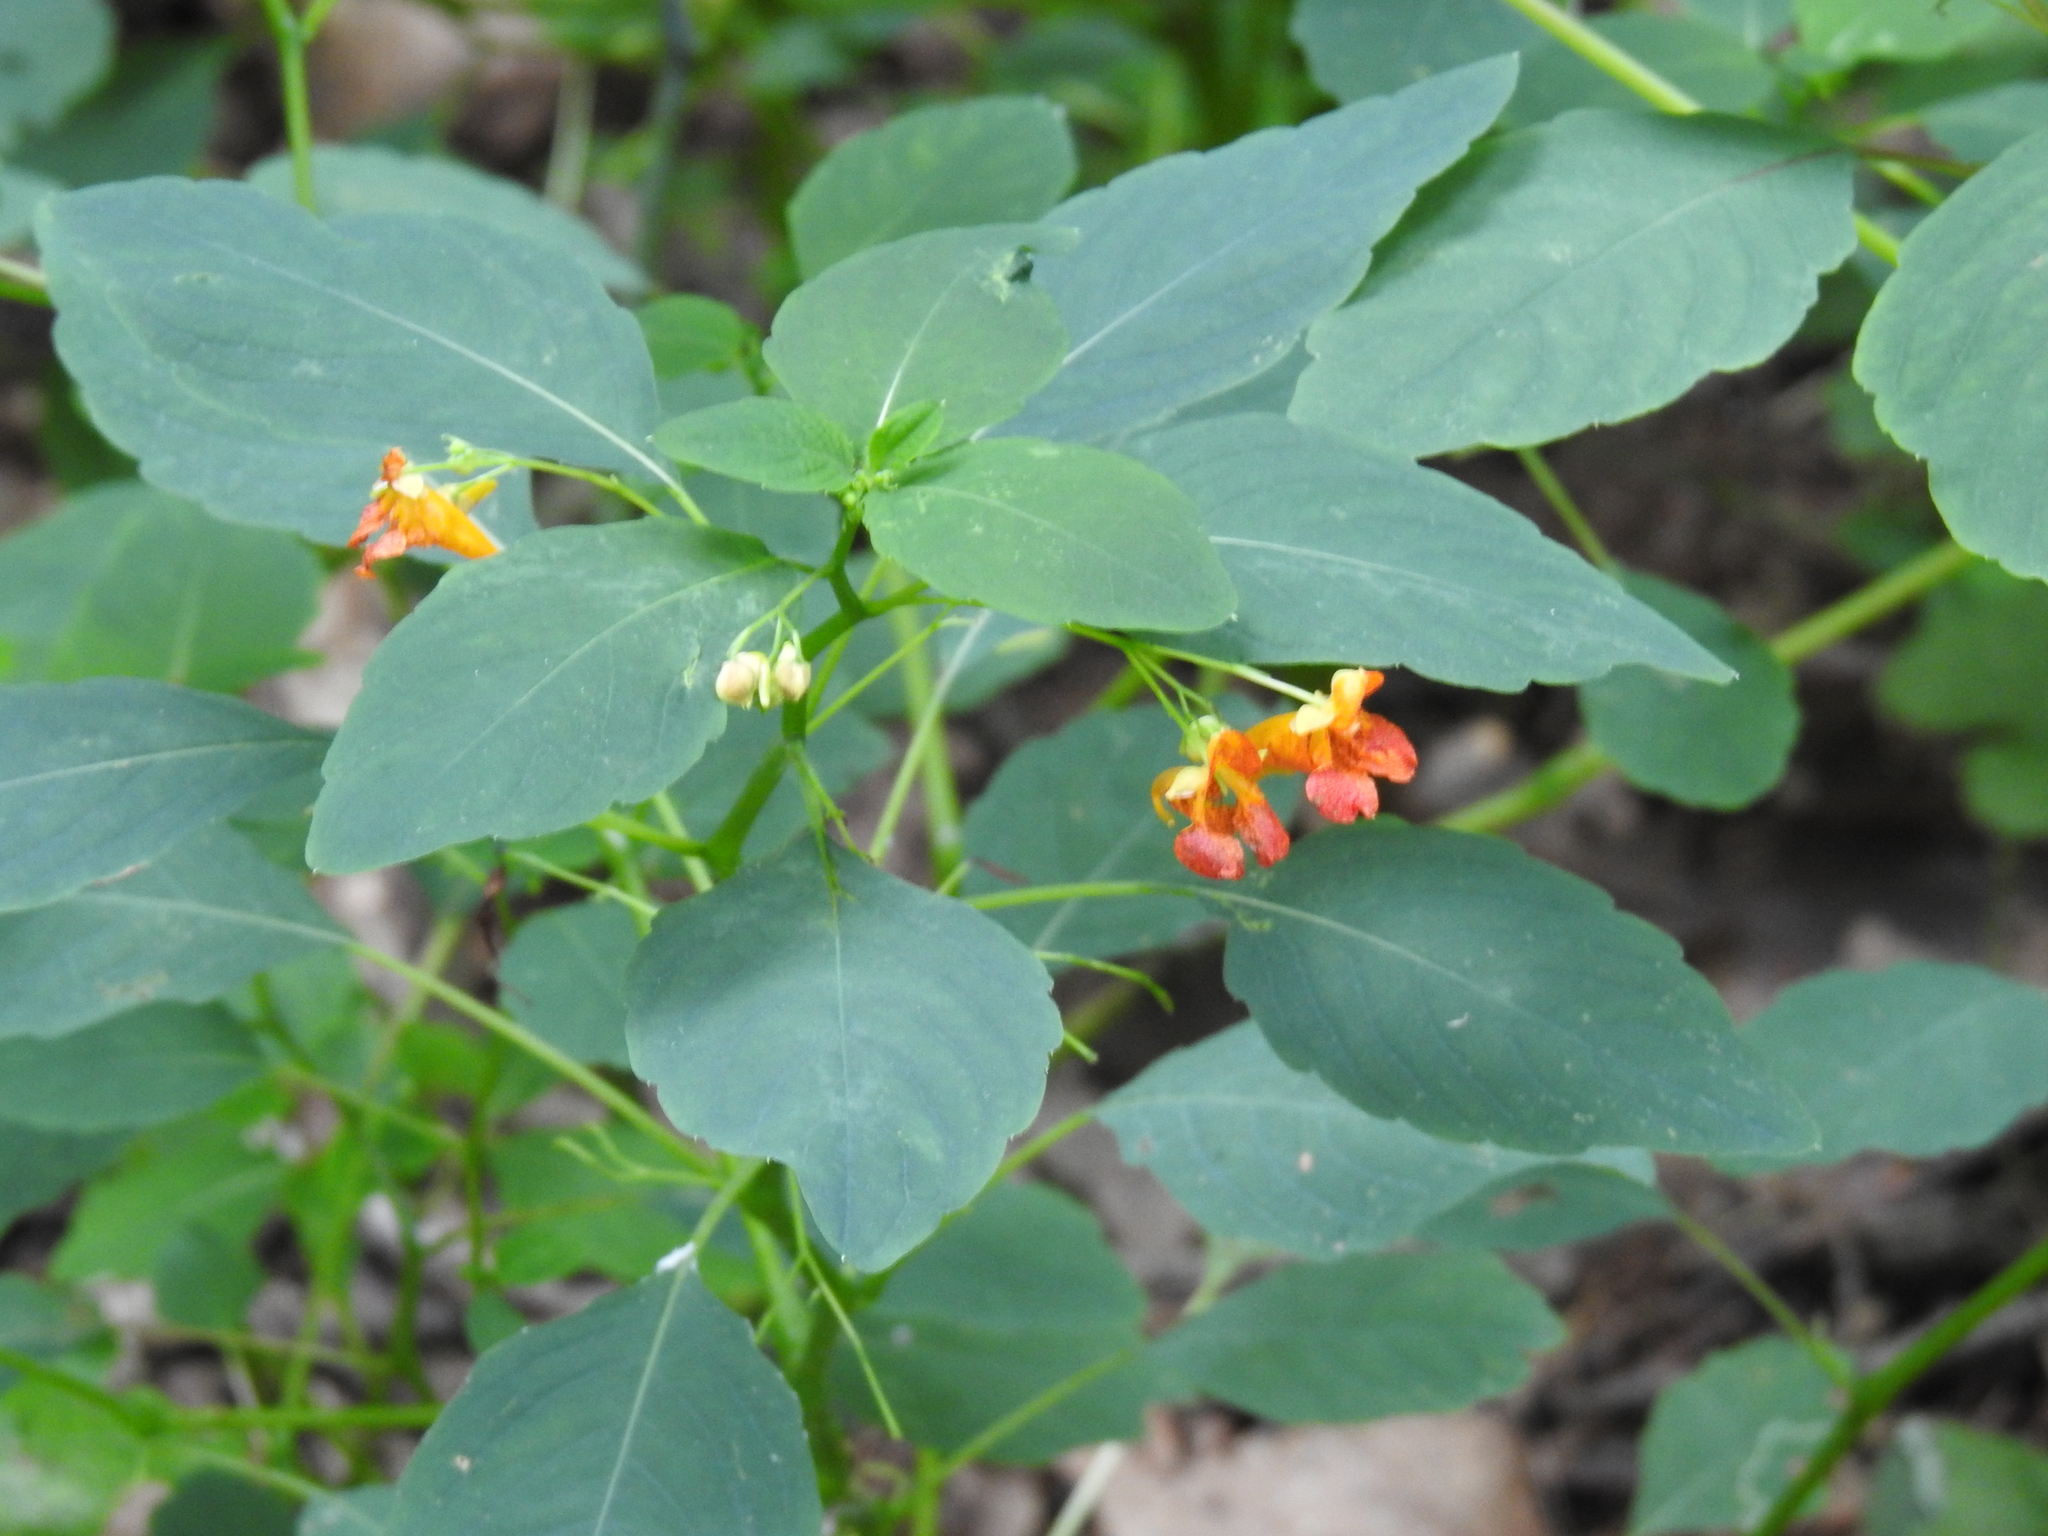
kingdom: Plantae
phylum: Tracheophyta
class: Magnoliopsida
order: Ericales
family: Balsaminaceae
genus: Impatiens
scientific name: Impatiens capensis
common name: Orange balsam
